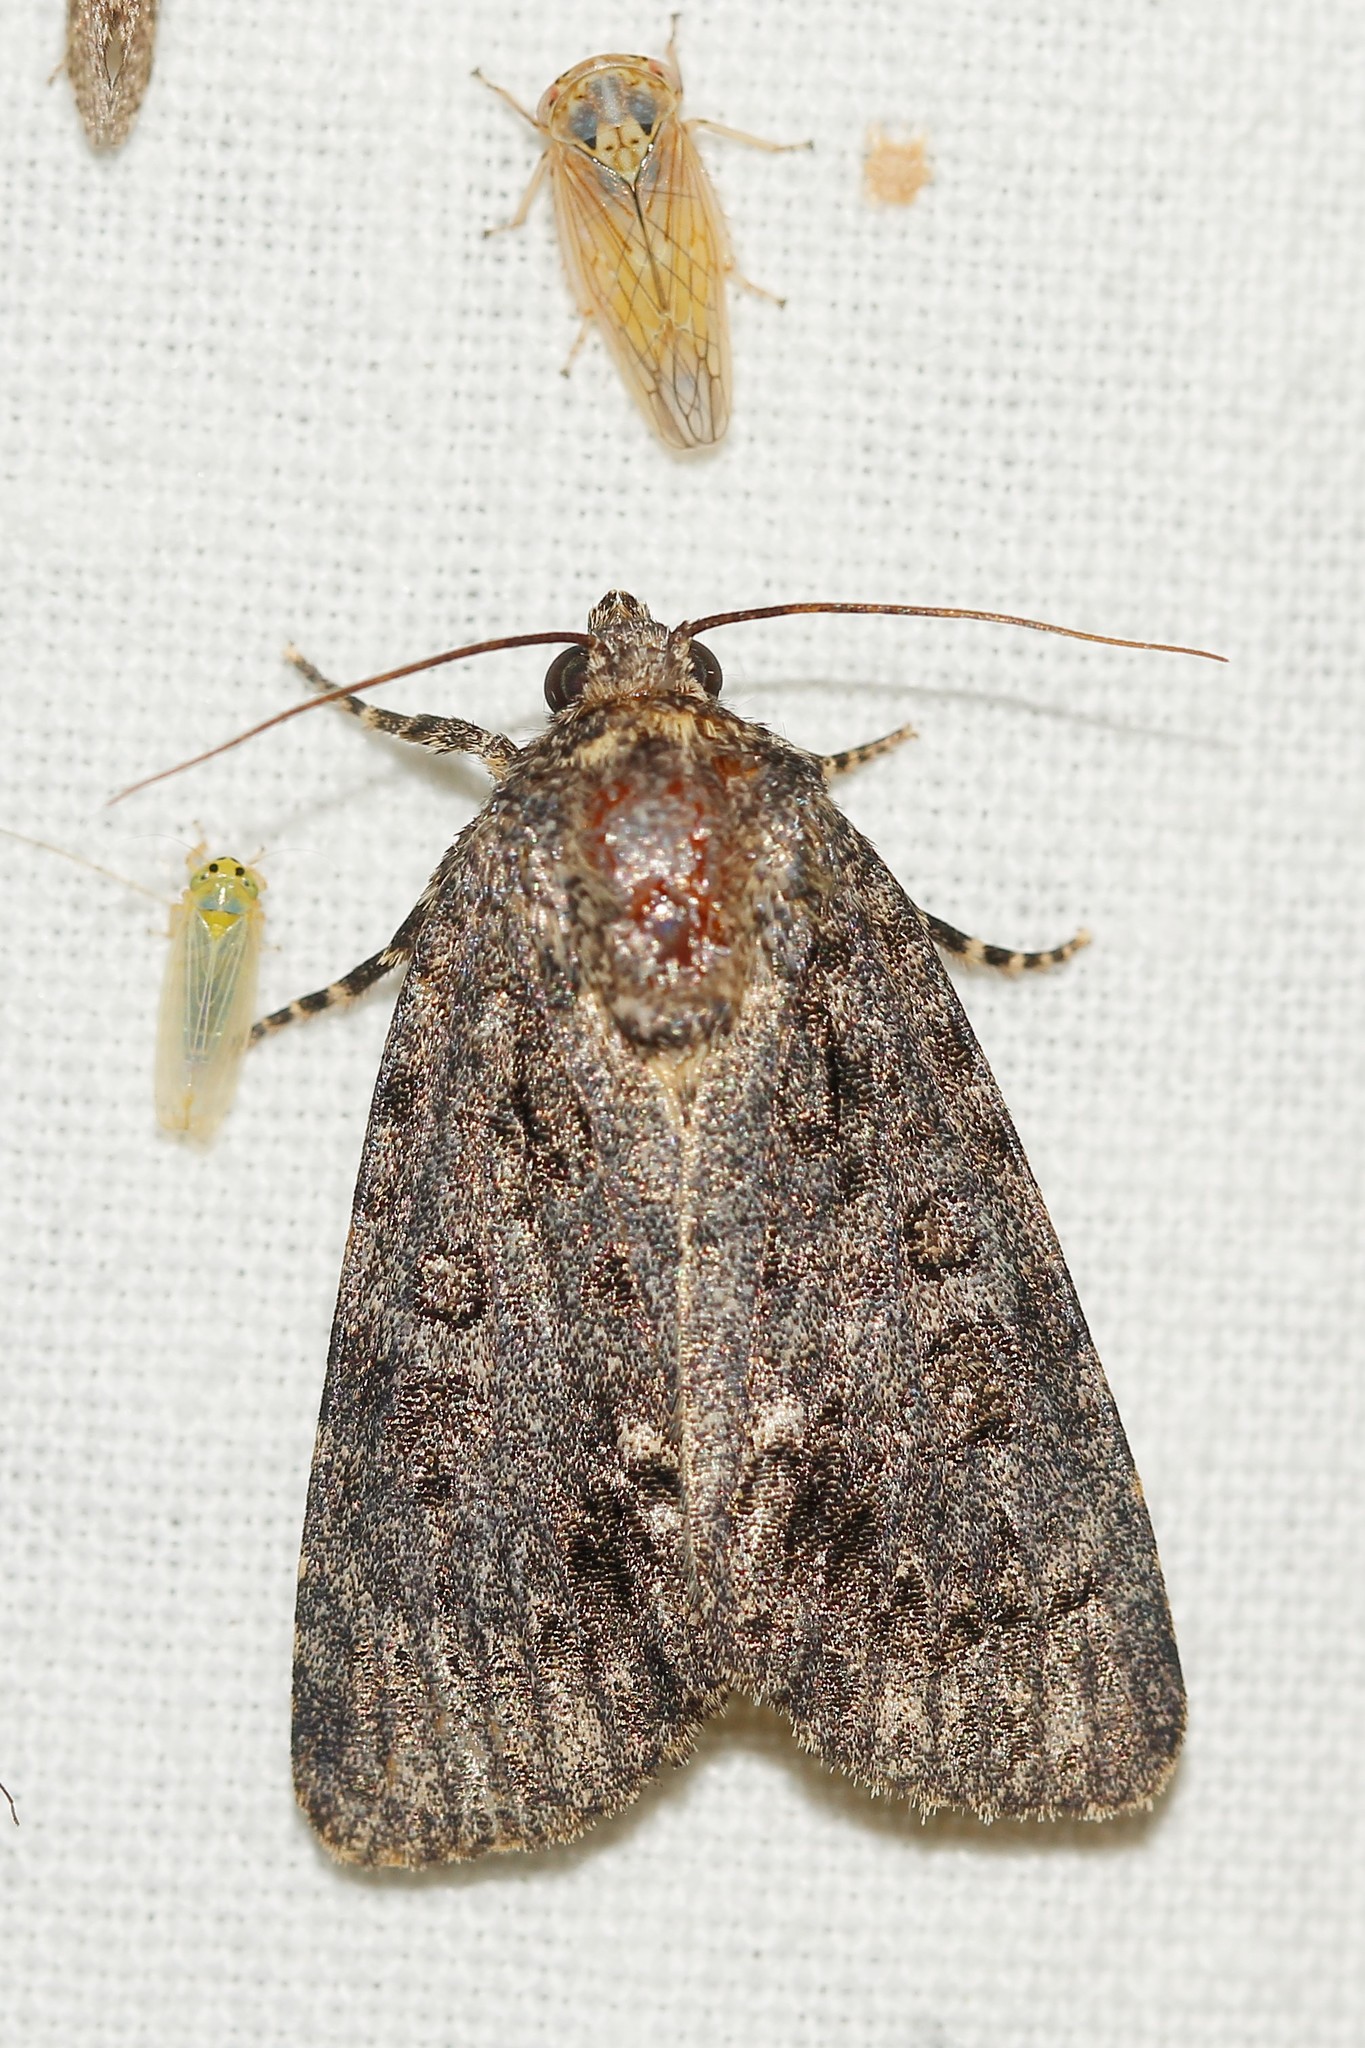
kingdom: Animalia
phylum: Arthropoda
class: Insecta
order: Lepidoptera
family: Noctuidae
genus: Acronicta
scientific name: Acronicta rumicis
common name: Knot grass
